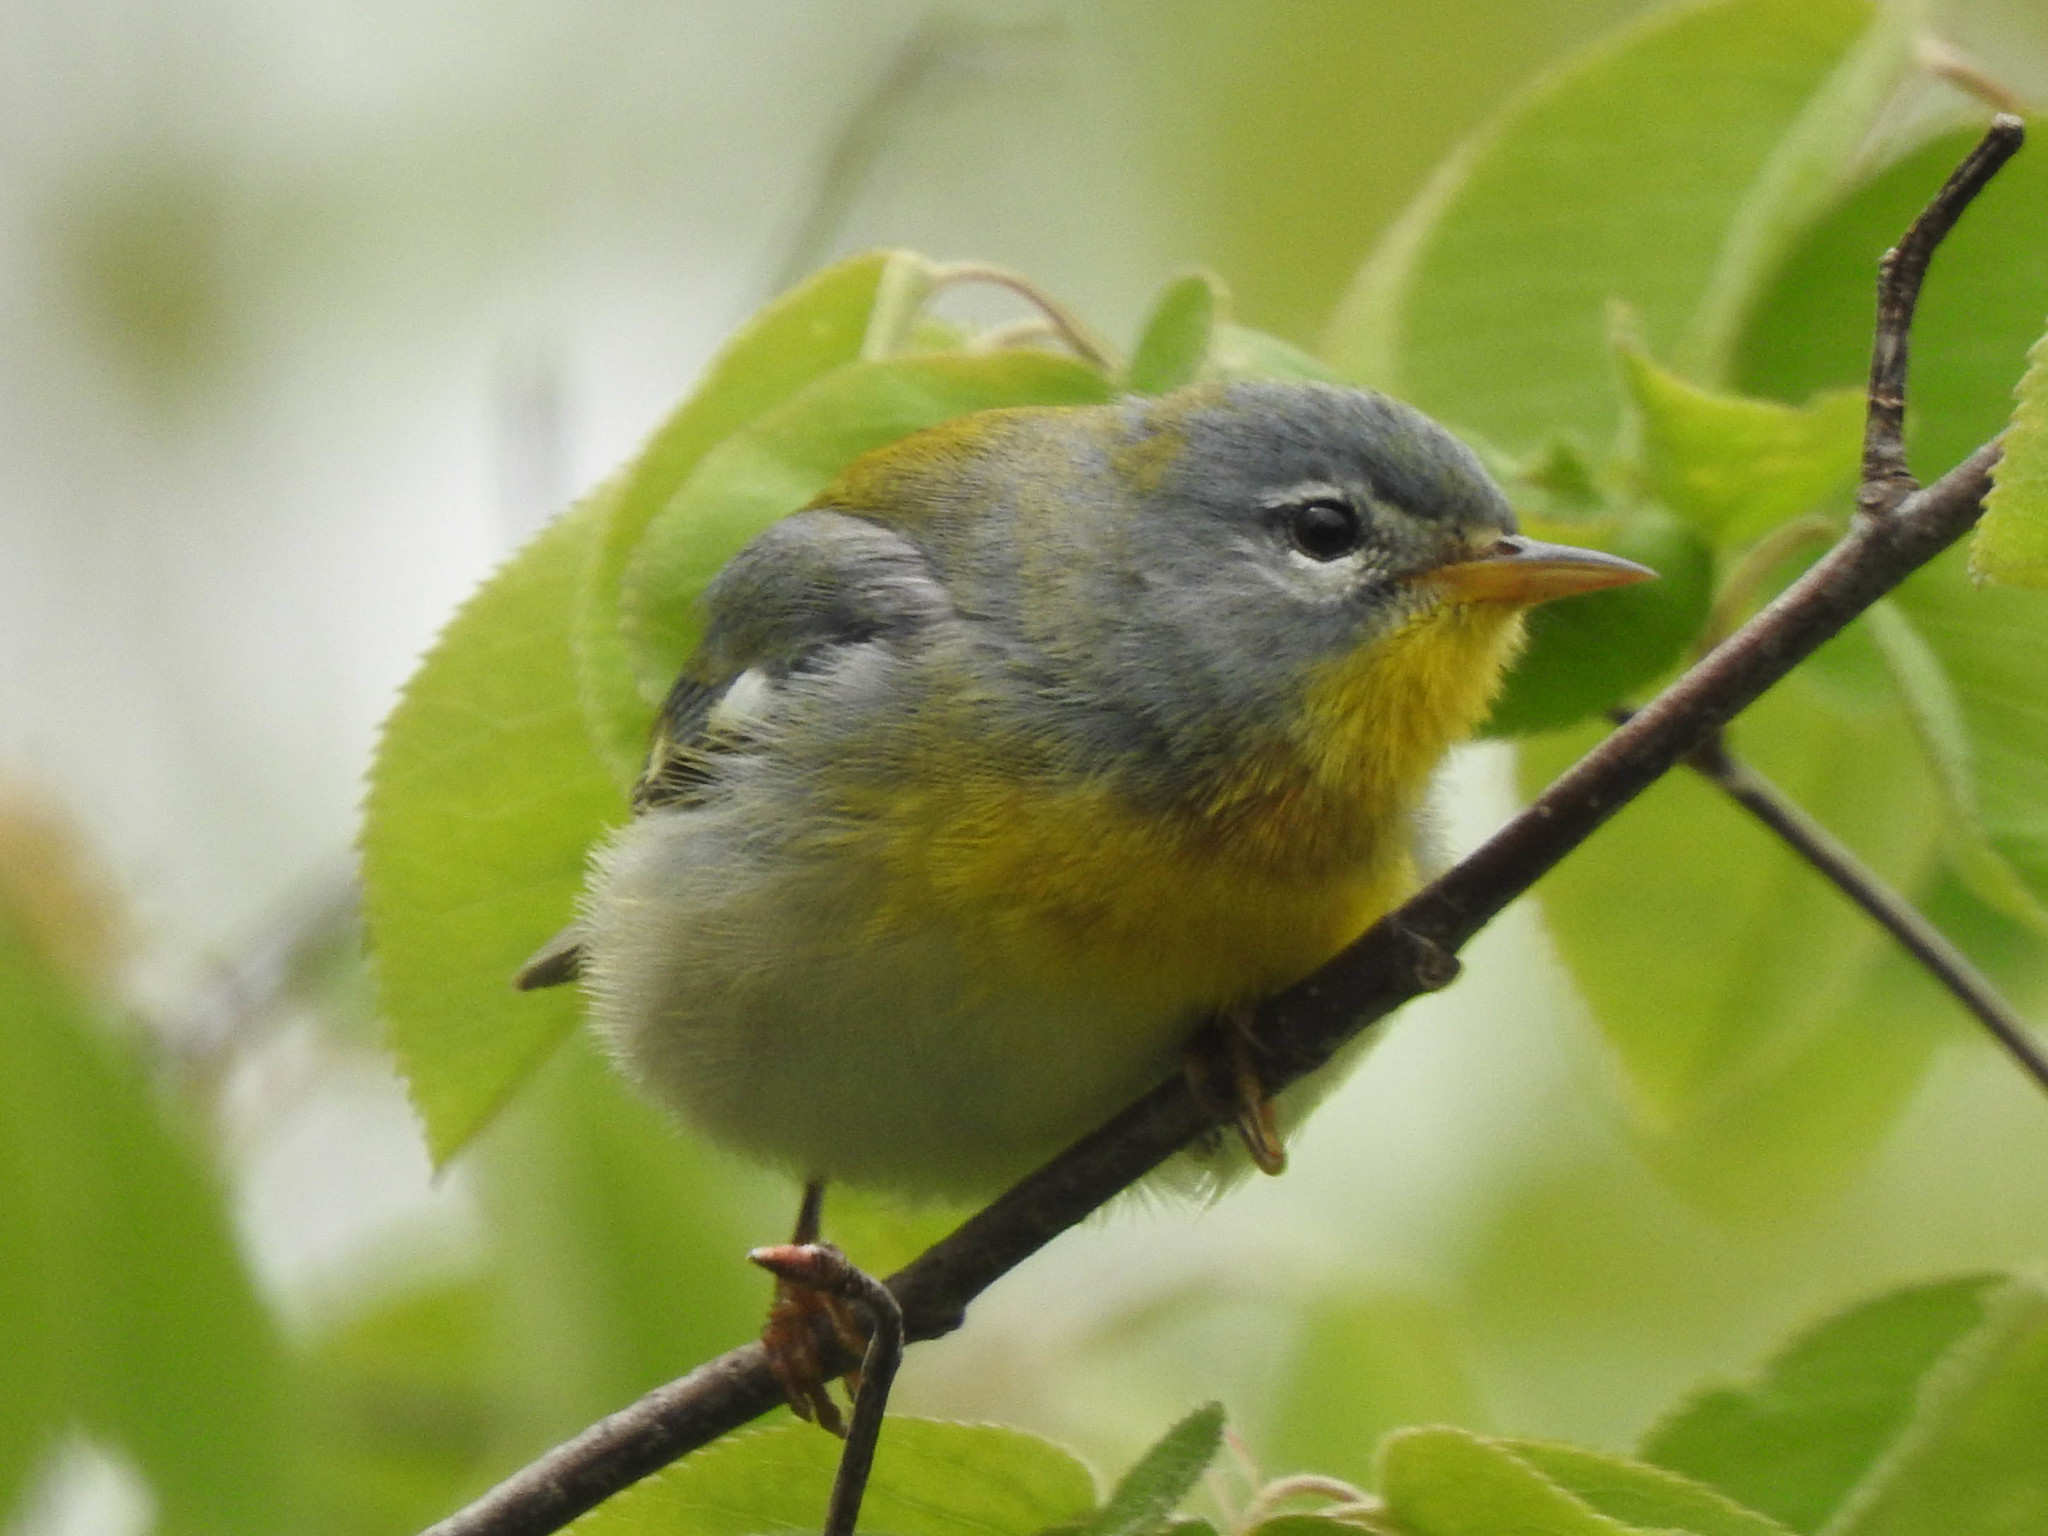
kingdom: Animalia
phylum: Chordata
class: Aves
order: Passeriformes
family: Parulidae
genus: Setophaga
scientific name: Setophaga americana
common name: Northern parula
